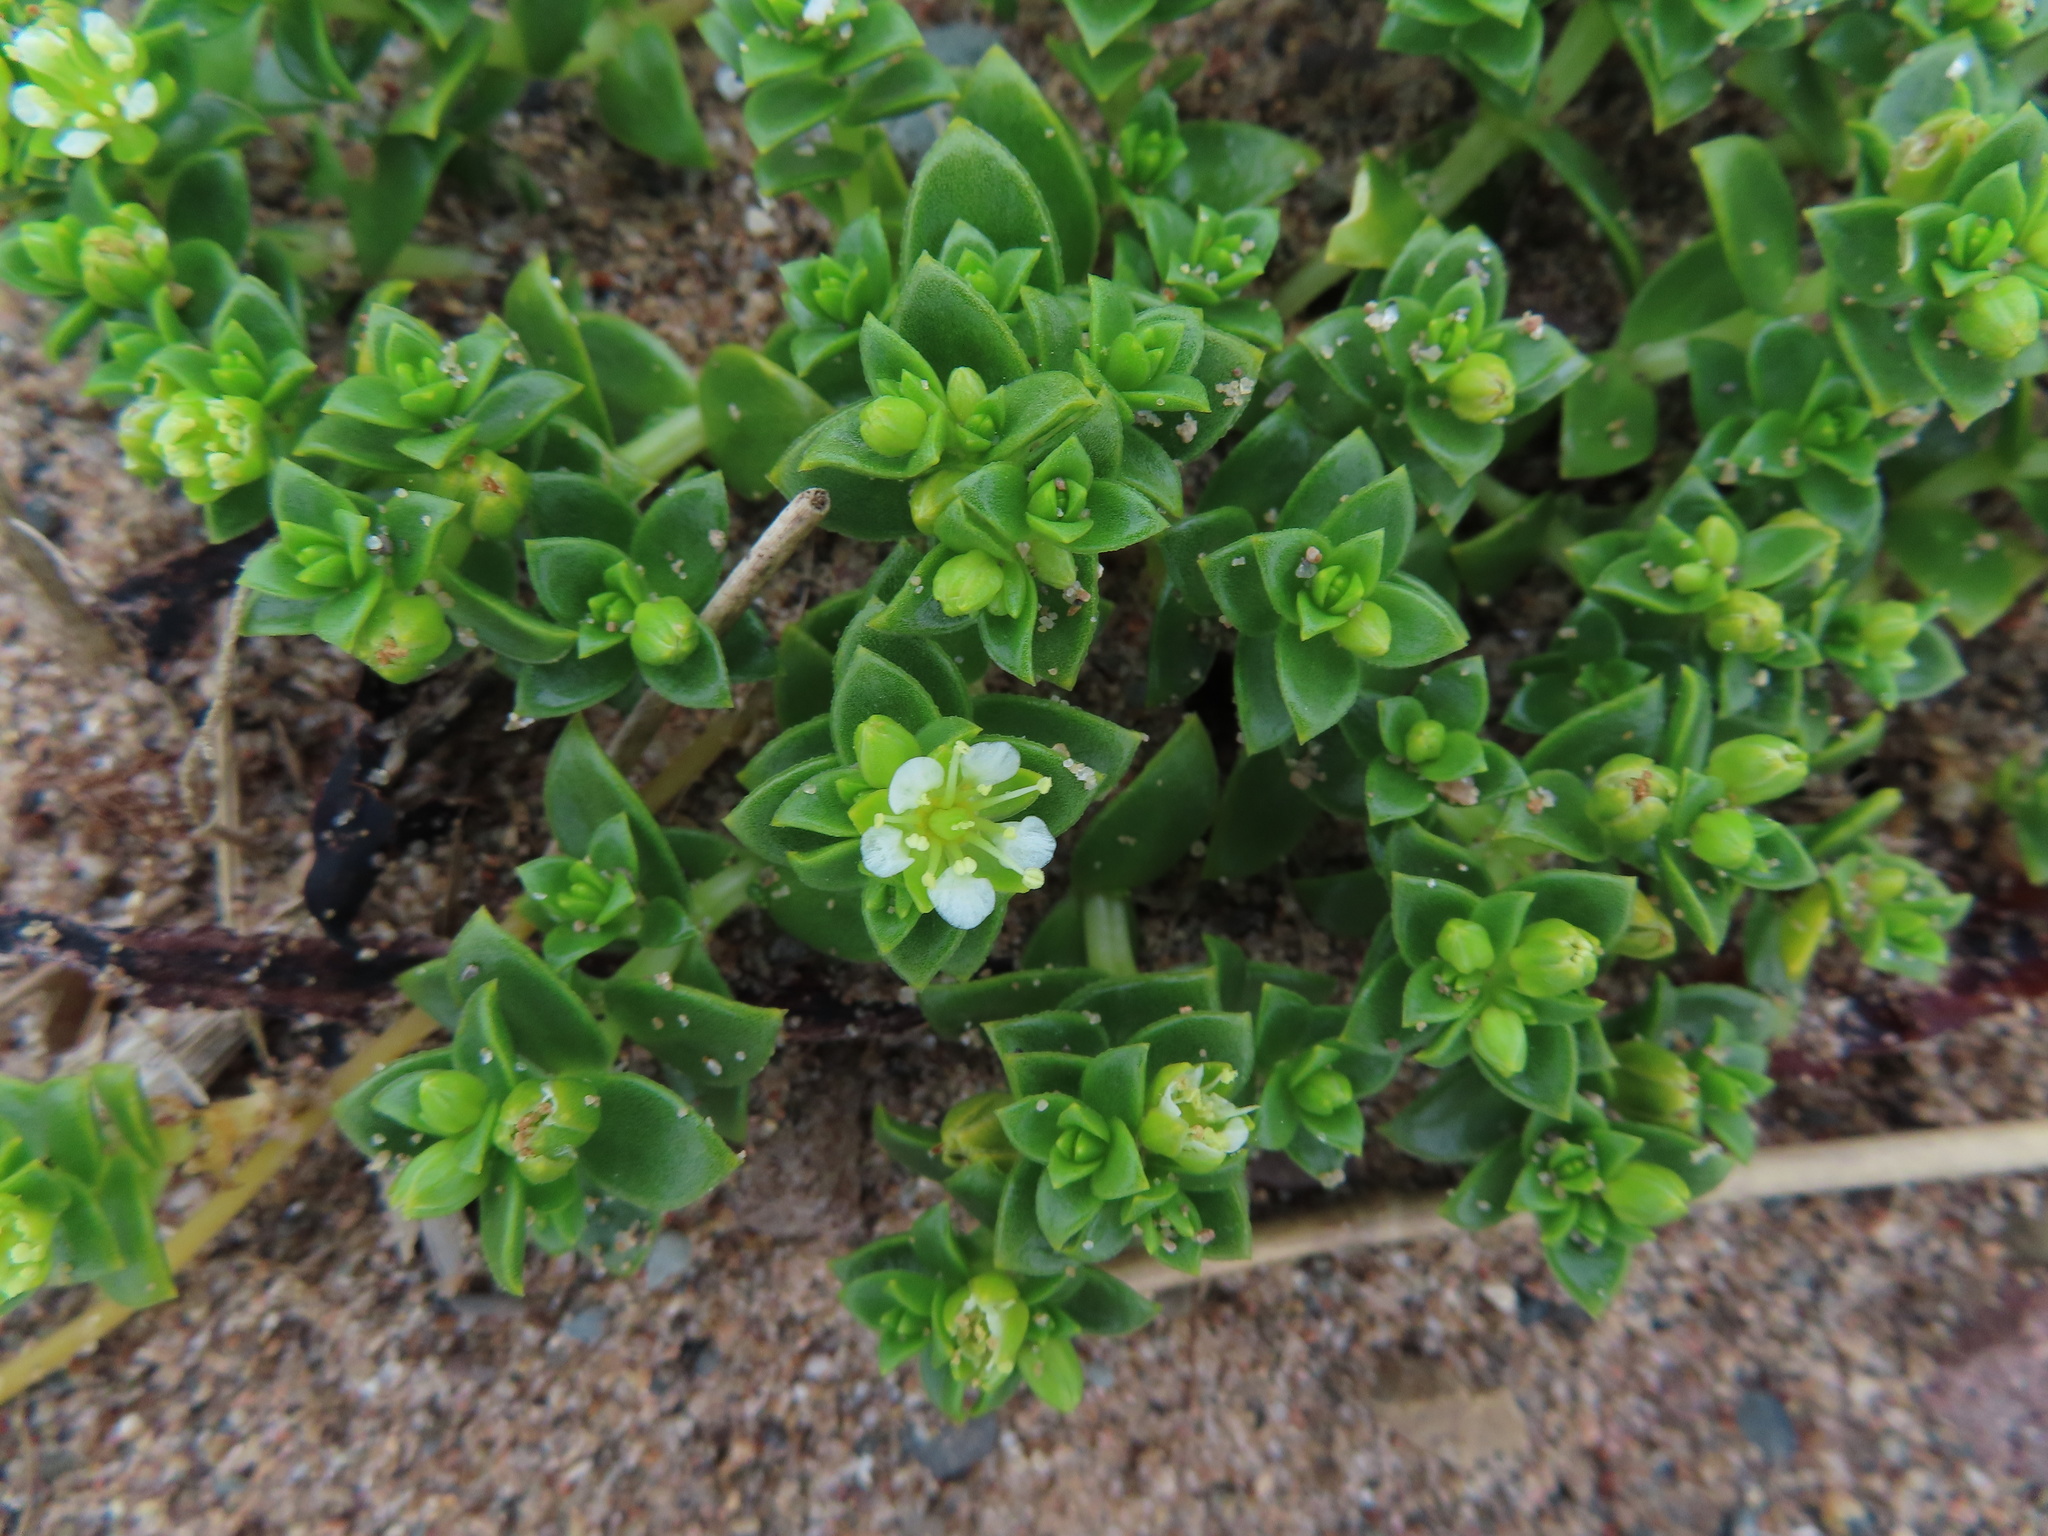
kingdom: Plantae
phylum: Tracheophyta
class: Magnoliopsida
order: Caryophyllales
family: Caryophyllaceae
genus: Honckenya
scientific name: Honckenya peploides
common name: Sea sandwort
